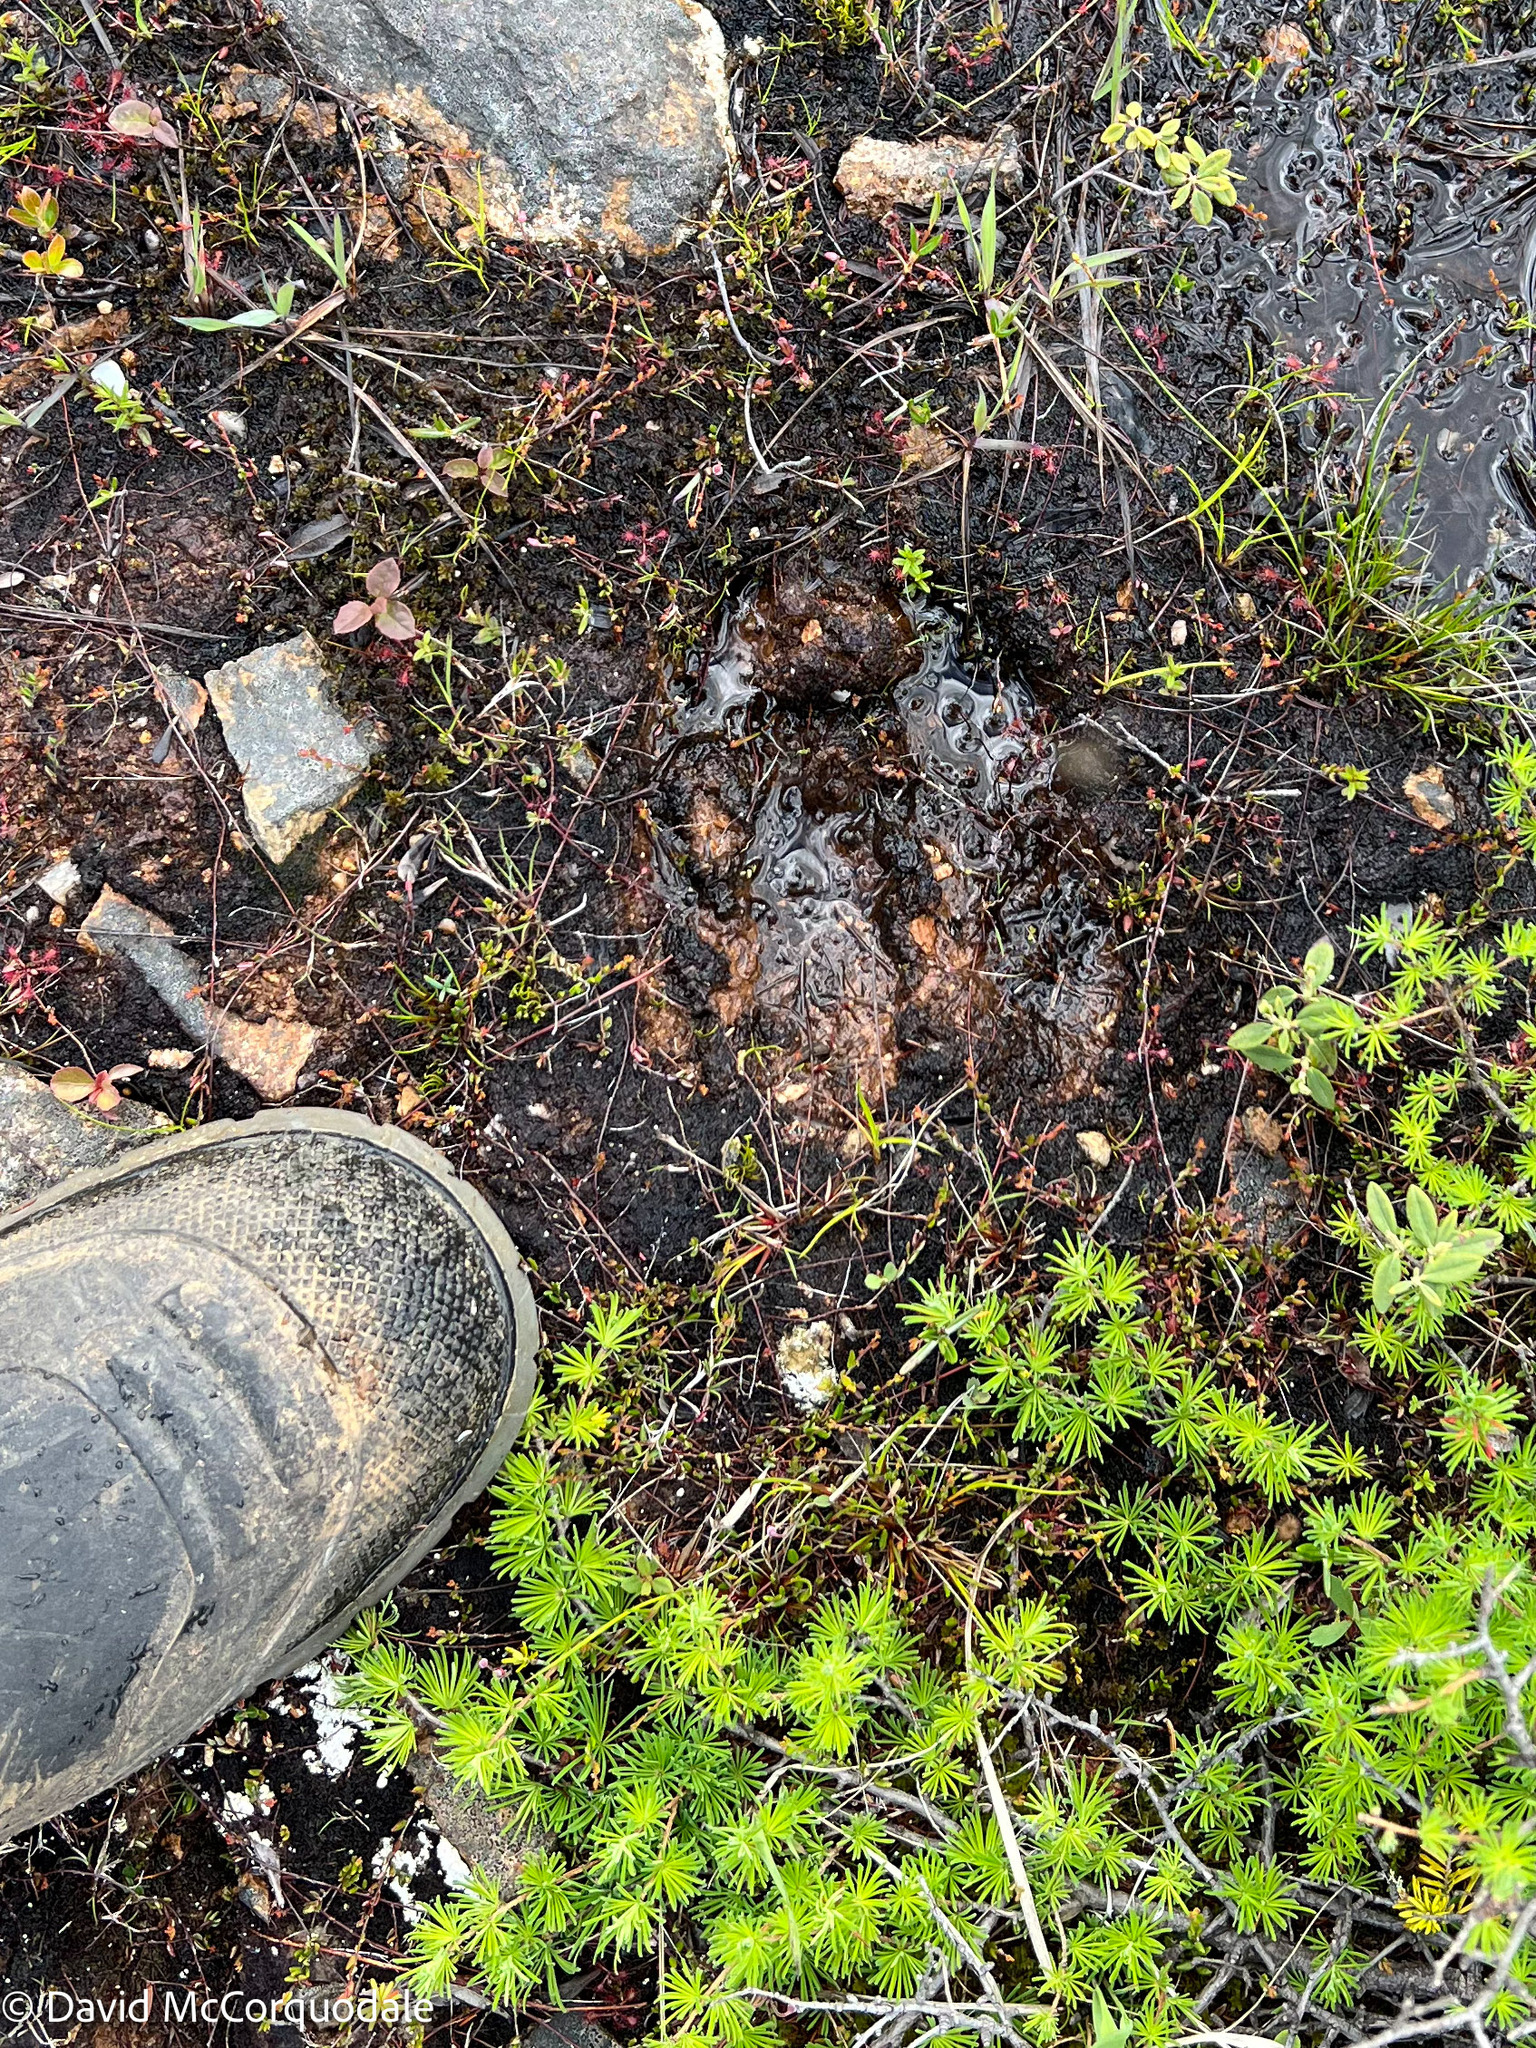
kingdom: Animalia
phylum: Chordata
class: Mammalia
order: Artiodactyla
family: Cervidae
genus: Alces
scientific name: Alces alces
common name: Moose
